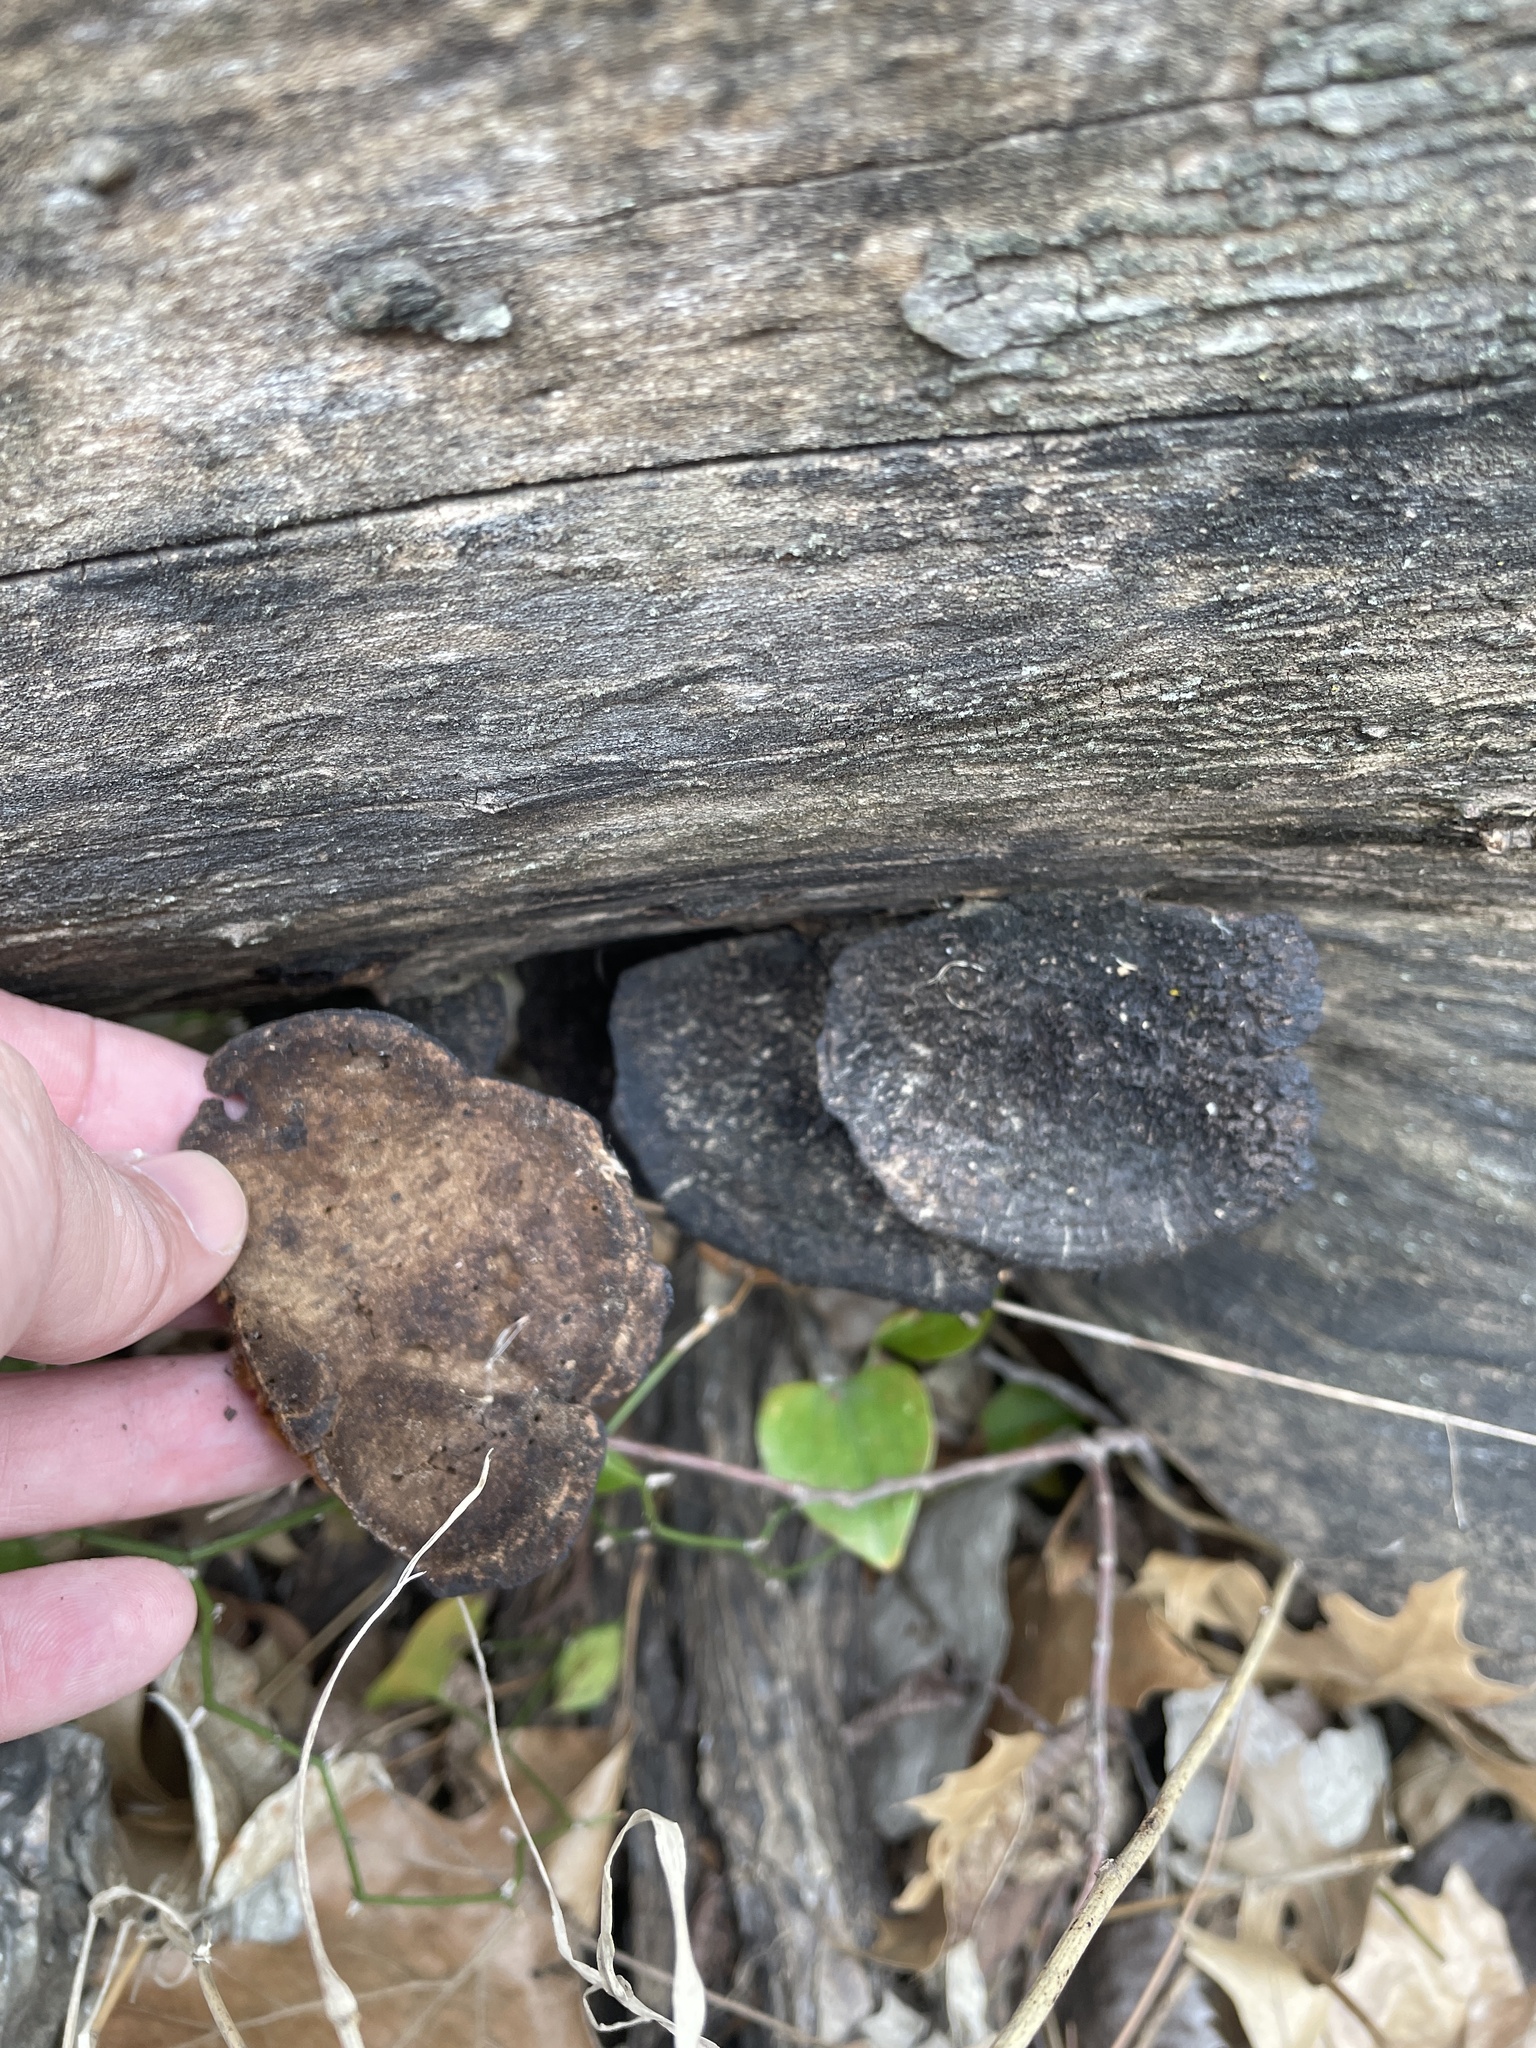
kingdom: Fungi
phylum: Basidiomycota
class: Agaricomycetes
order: Polyporales
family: Cerrenaceae
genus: Cerrena
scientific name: Cerrena hydnoides
